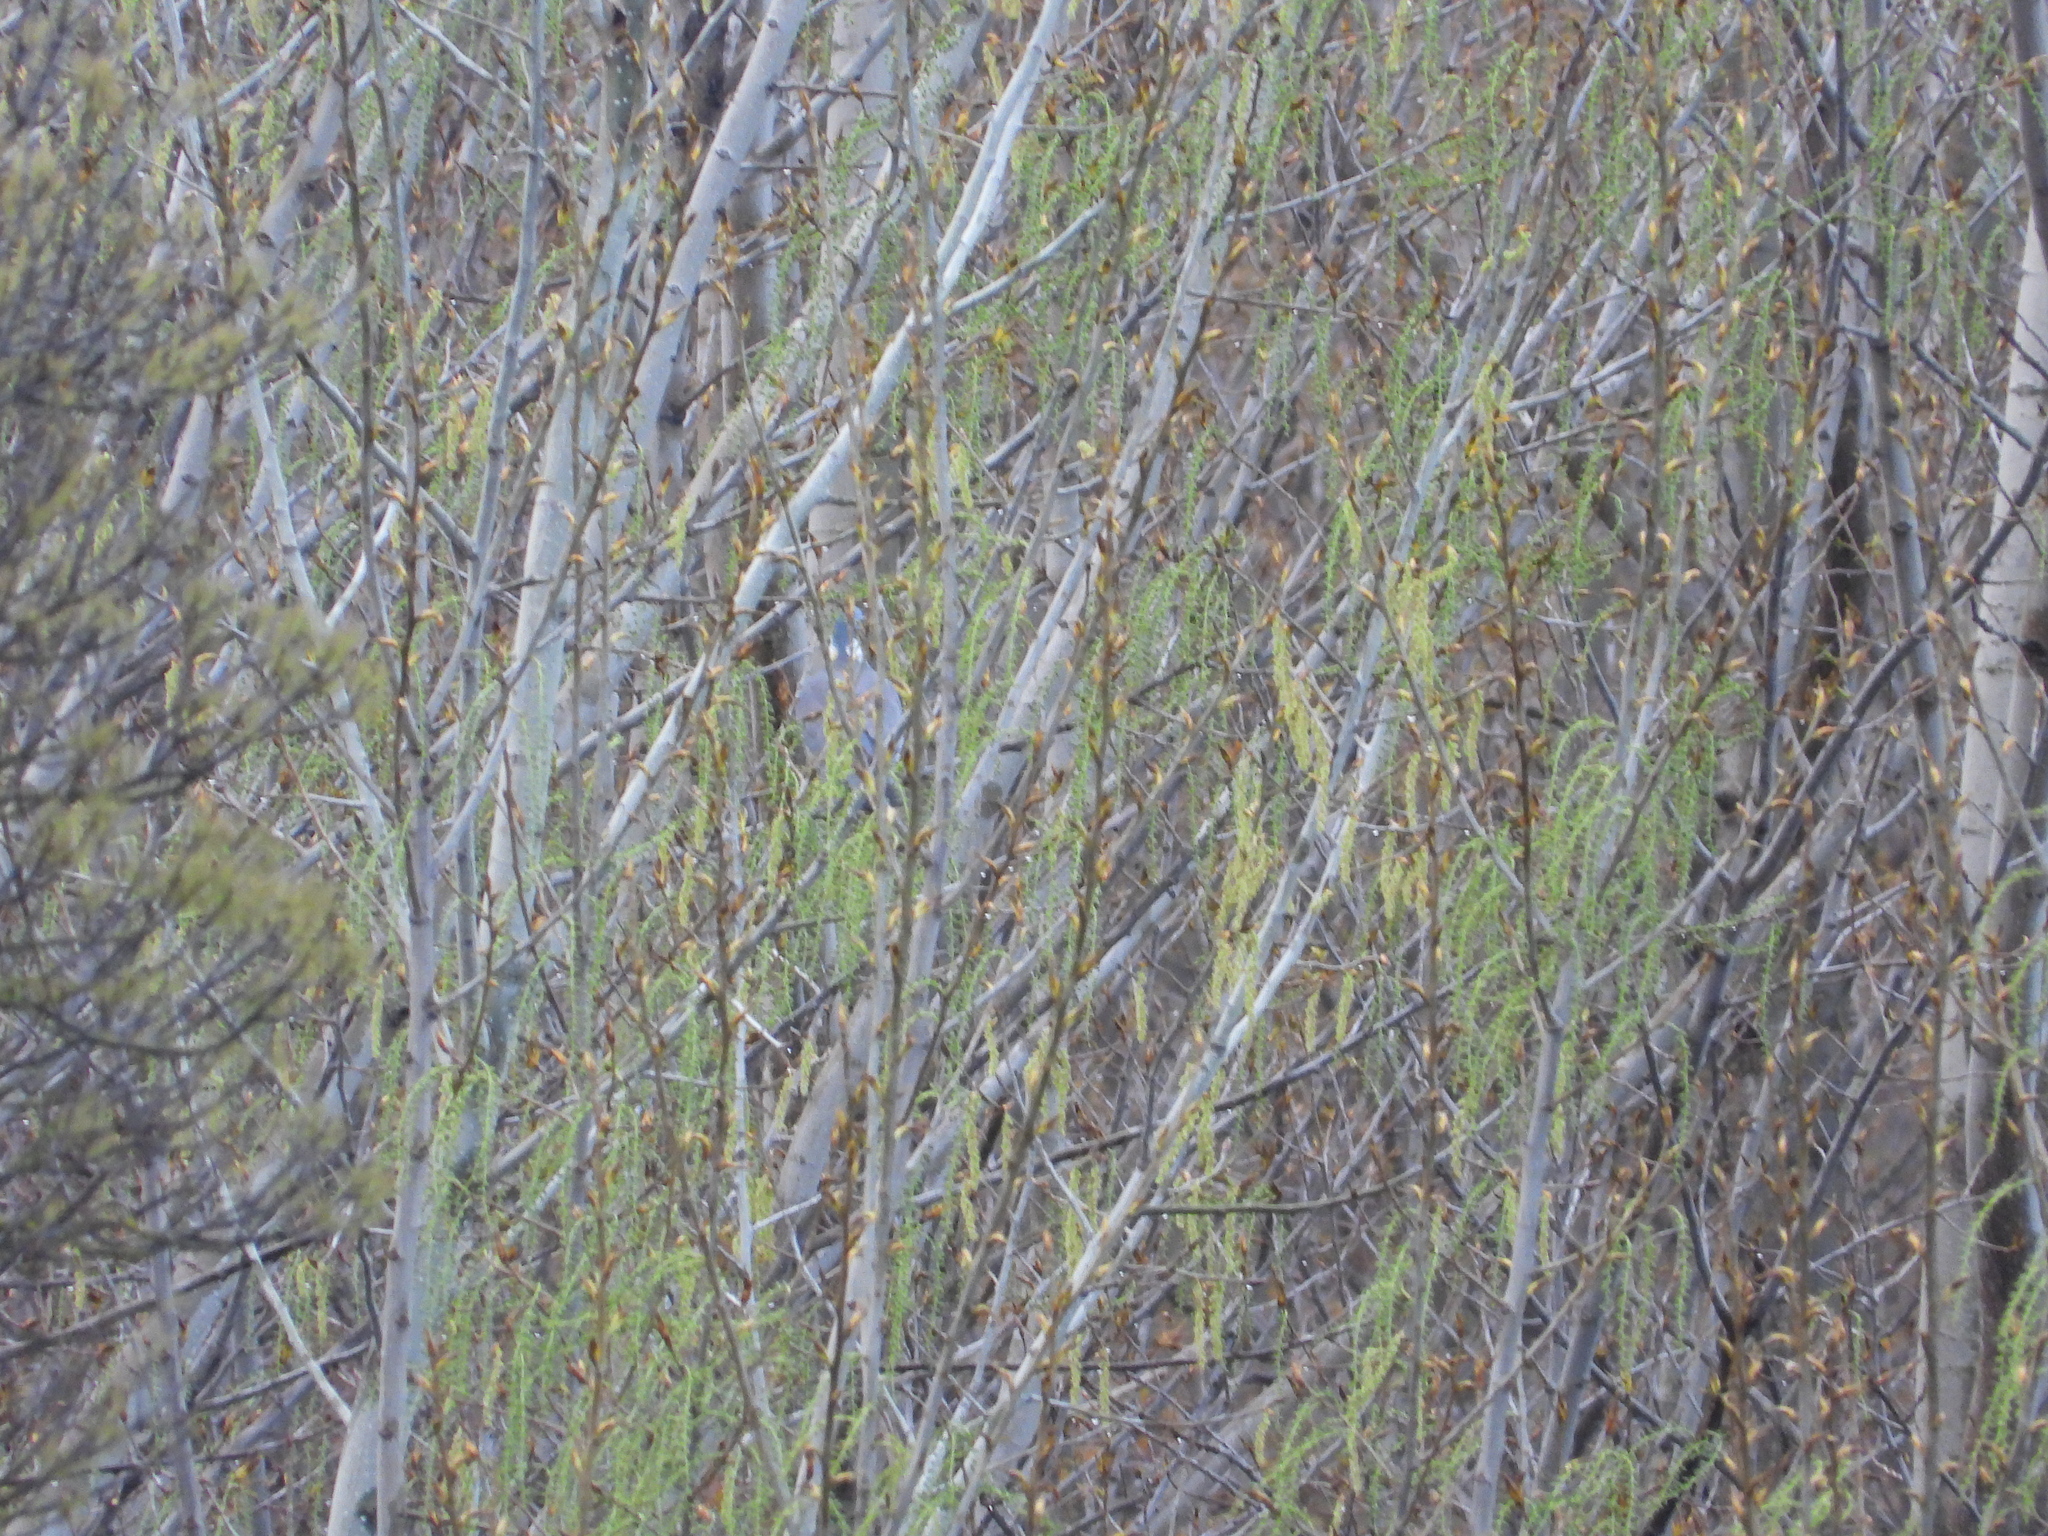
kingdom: Animalia
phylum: Chordata
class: Aves
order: Columbiformes
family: Columbidae
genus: Columba
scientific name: Columba palumbus
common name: Common wood pigeon
